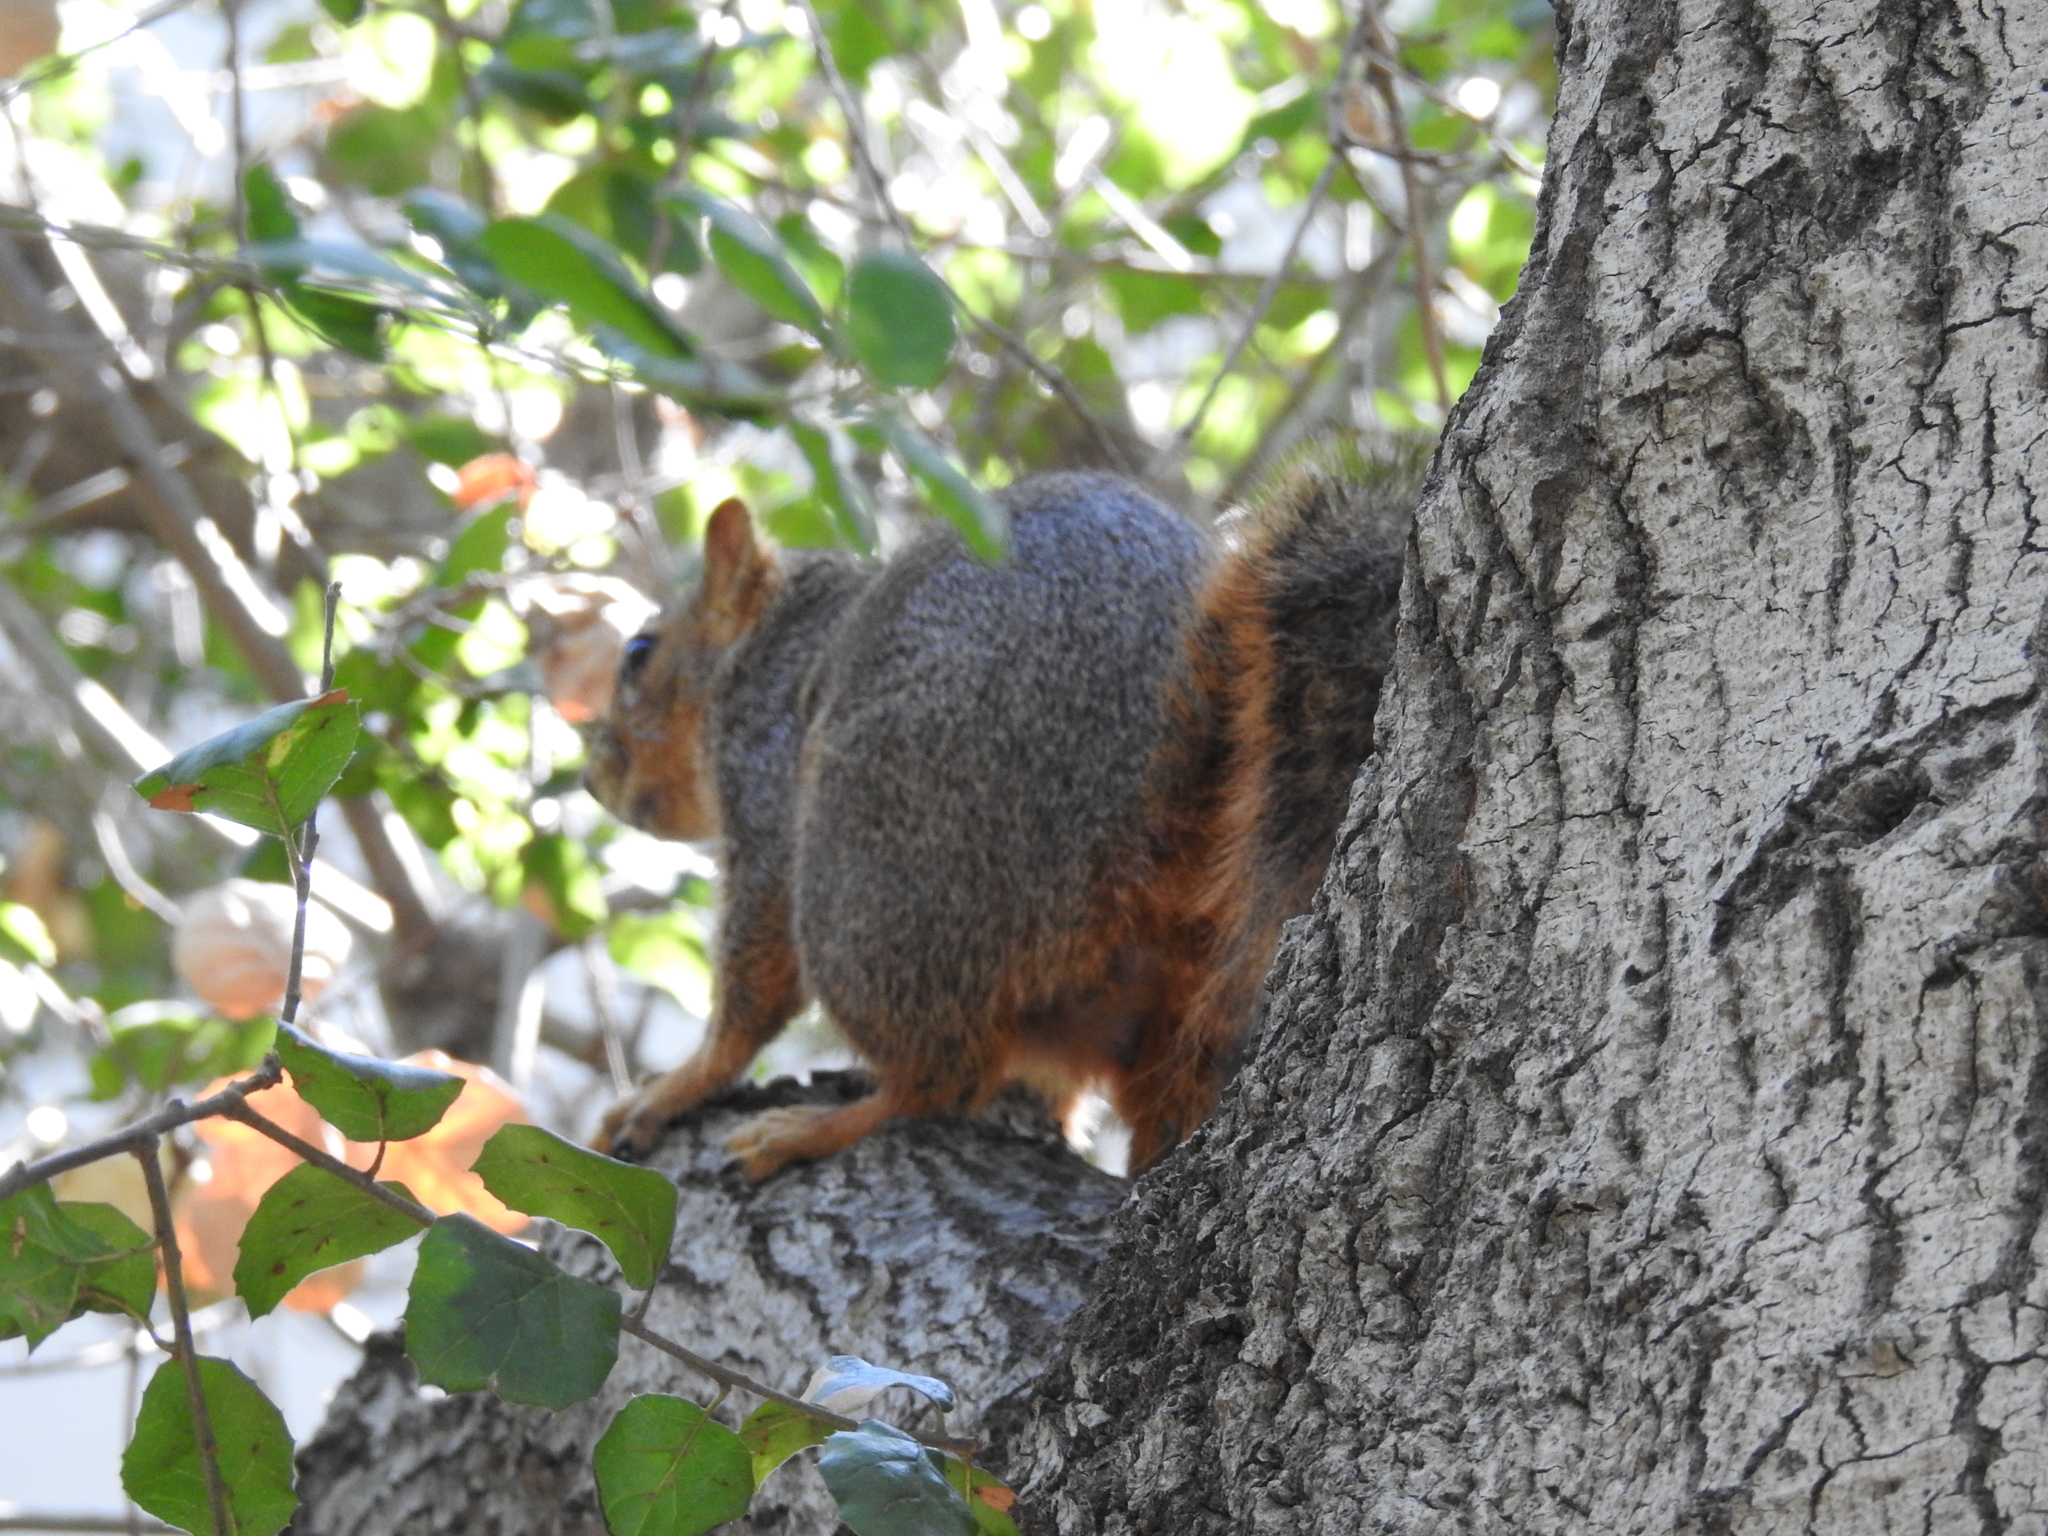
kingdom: Animalia
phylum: Chordata
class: Mammalia
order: Rodentia
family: Sciuridae
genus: Sciurus
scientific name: Sciurus niger
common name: Fox squirrel
